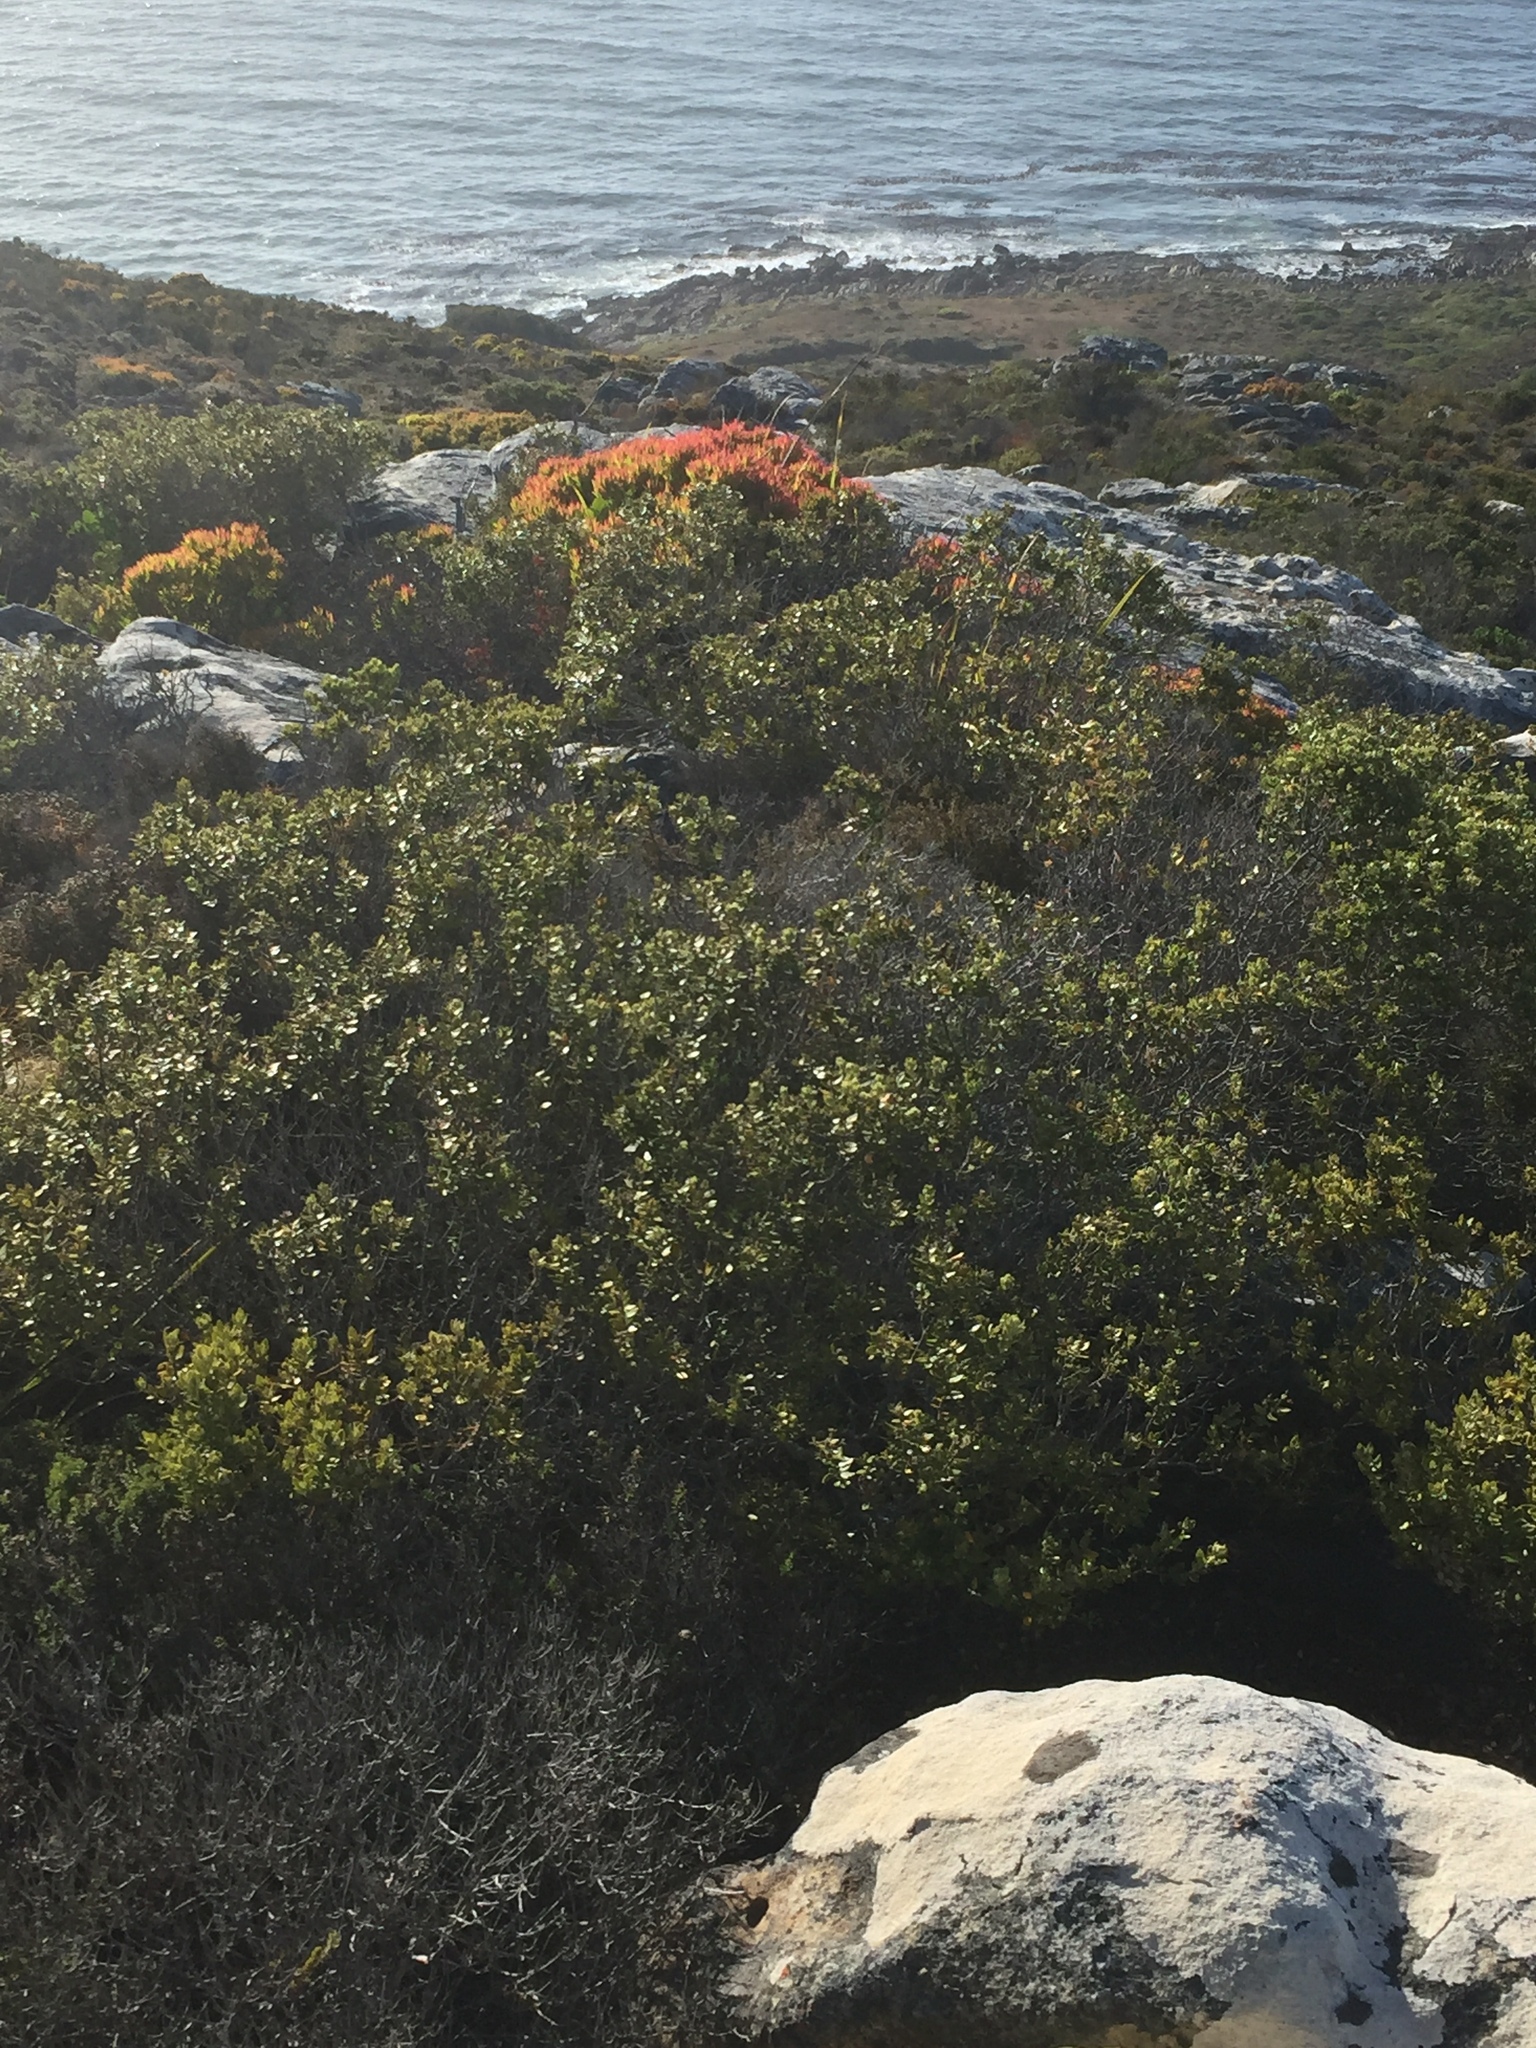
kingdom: Plantae
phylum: Tracheophyta
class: Magnoliopsida
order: Proteales
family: Proteaceae
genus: Leucadendron
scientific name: Leucadendron salignum
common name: Common sunshine conebush
